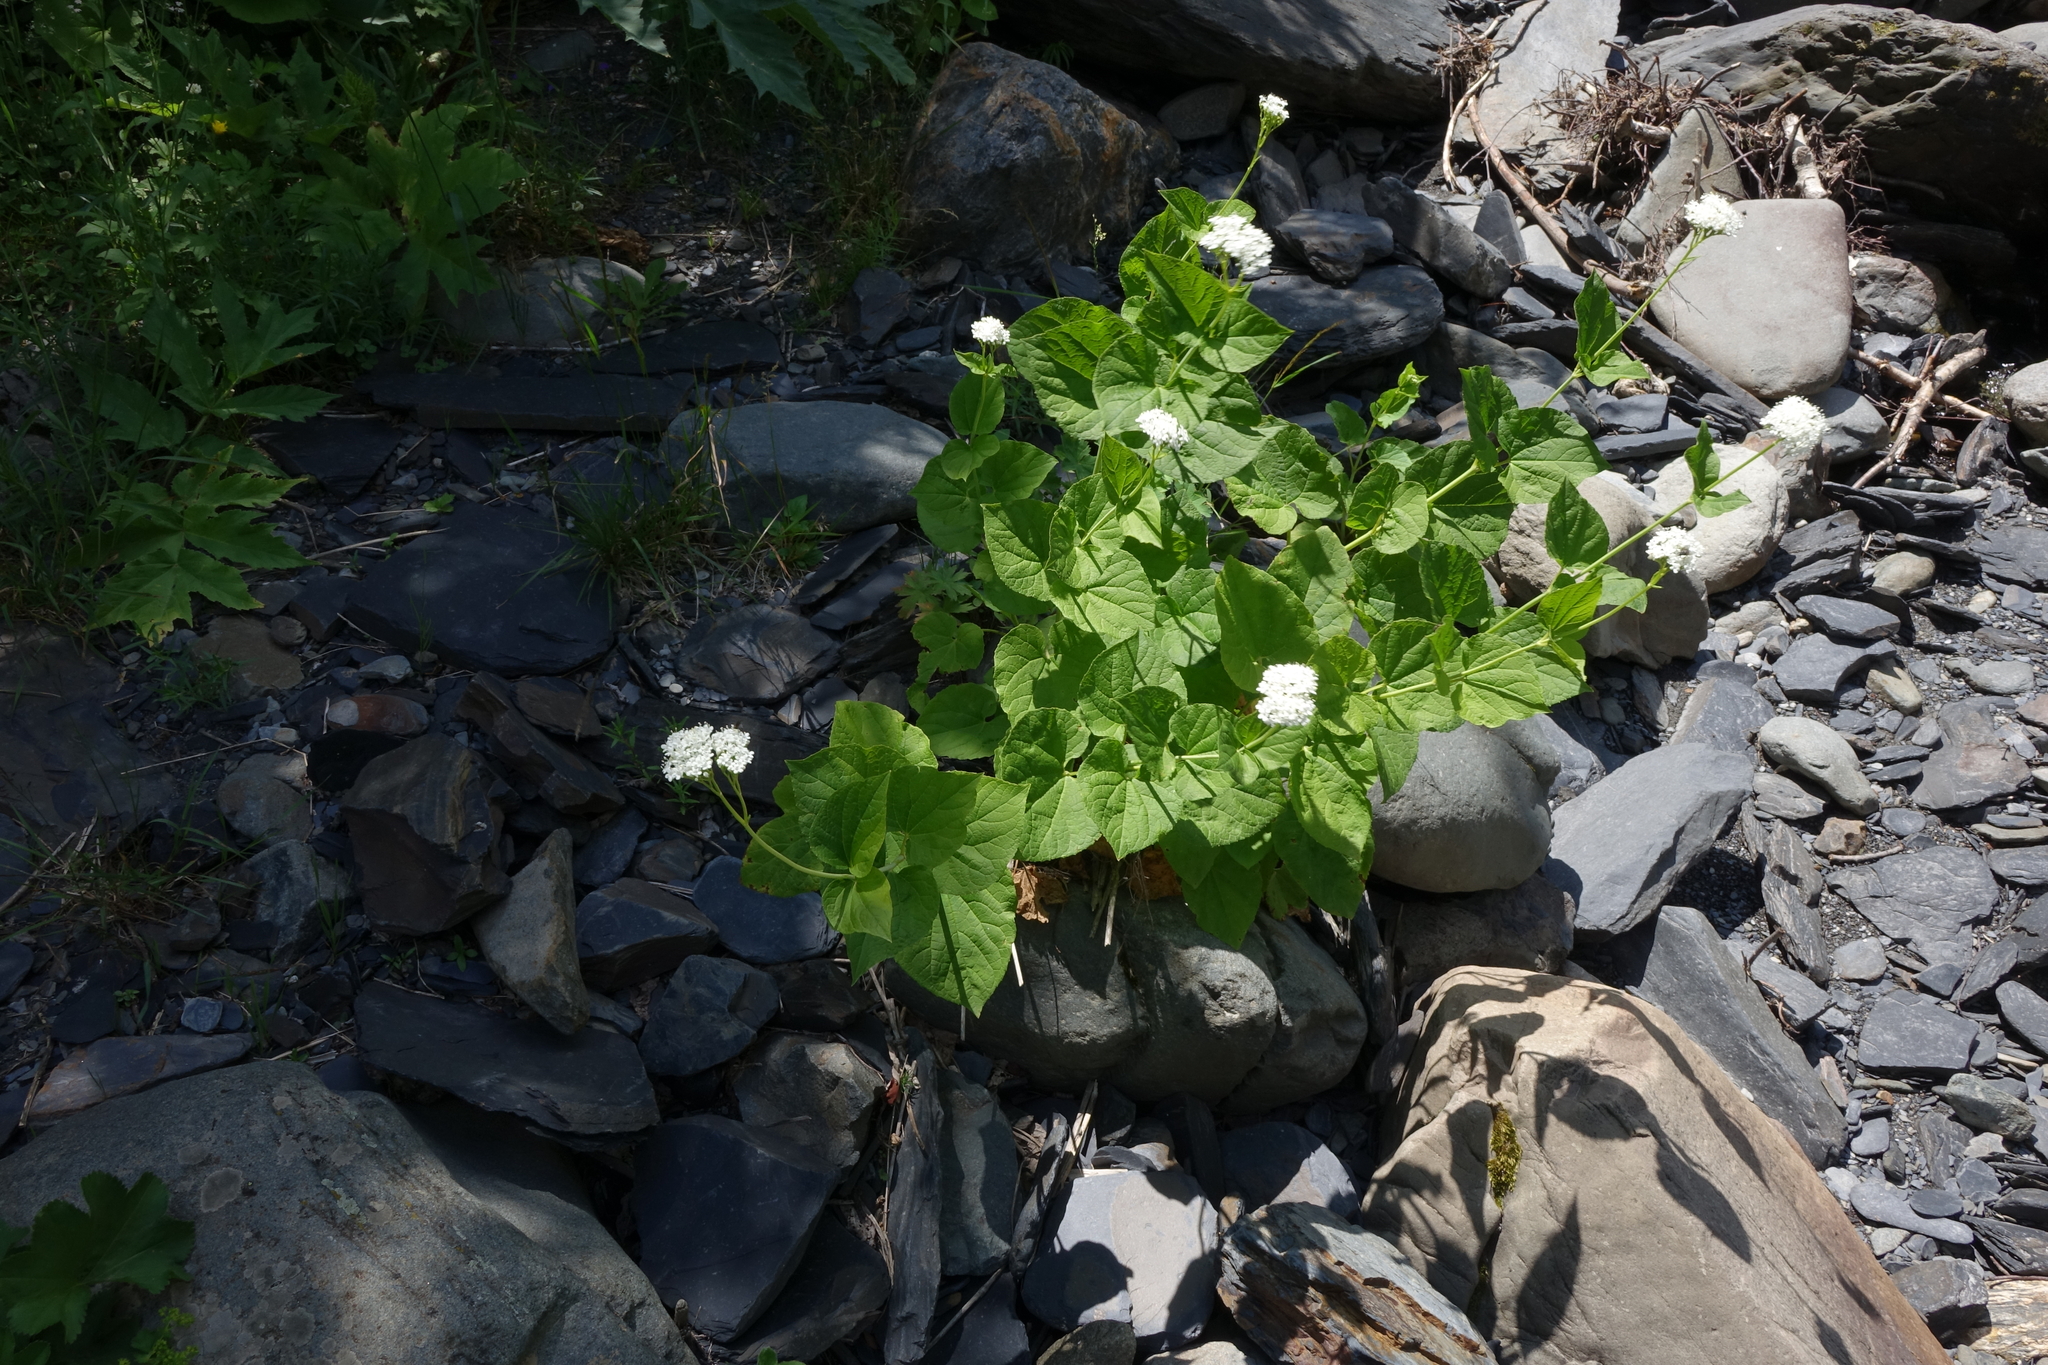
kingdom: Plantae
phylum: Tracheophyta
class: Magnoliopsida
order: Dipsacales
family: Caprifoliaceae
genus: Valeriana
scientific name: Valeriana alliariifolia
